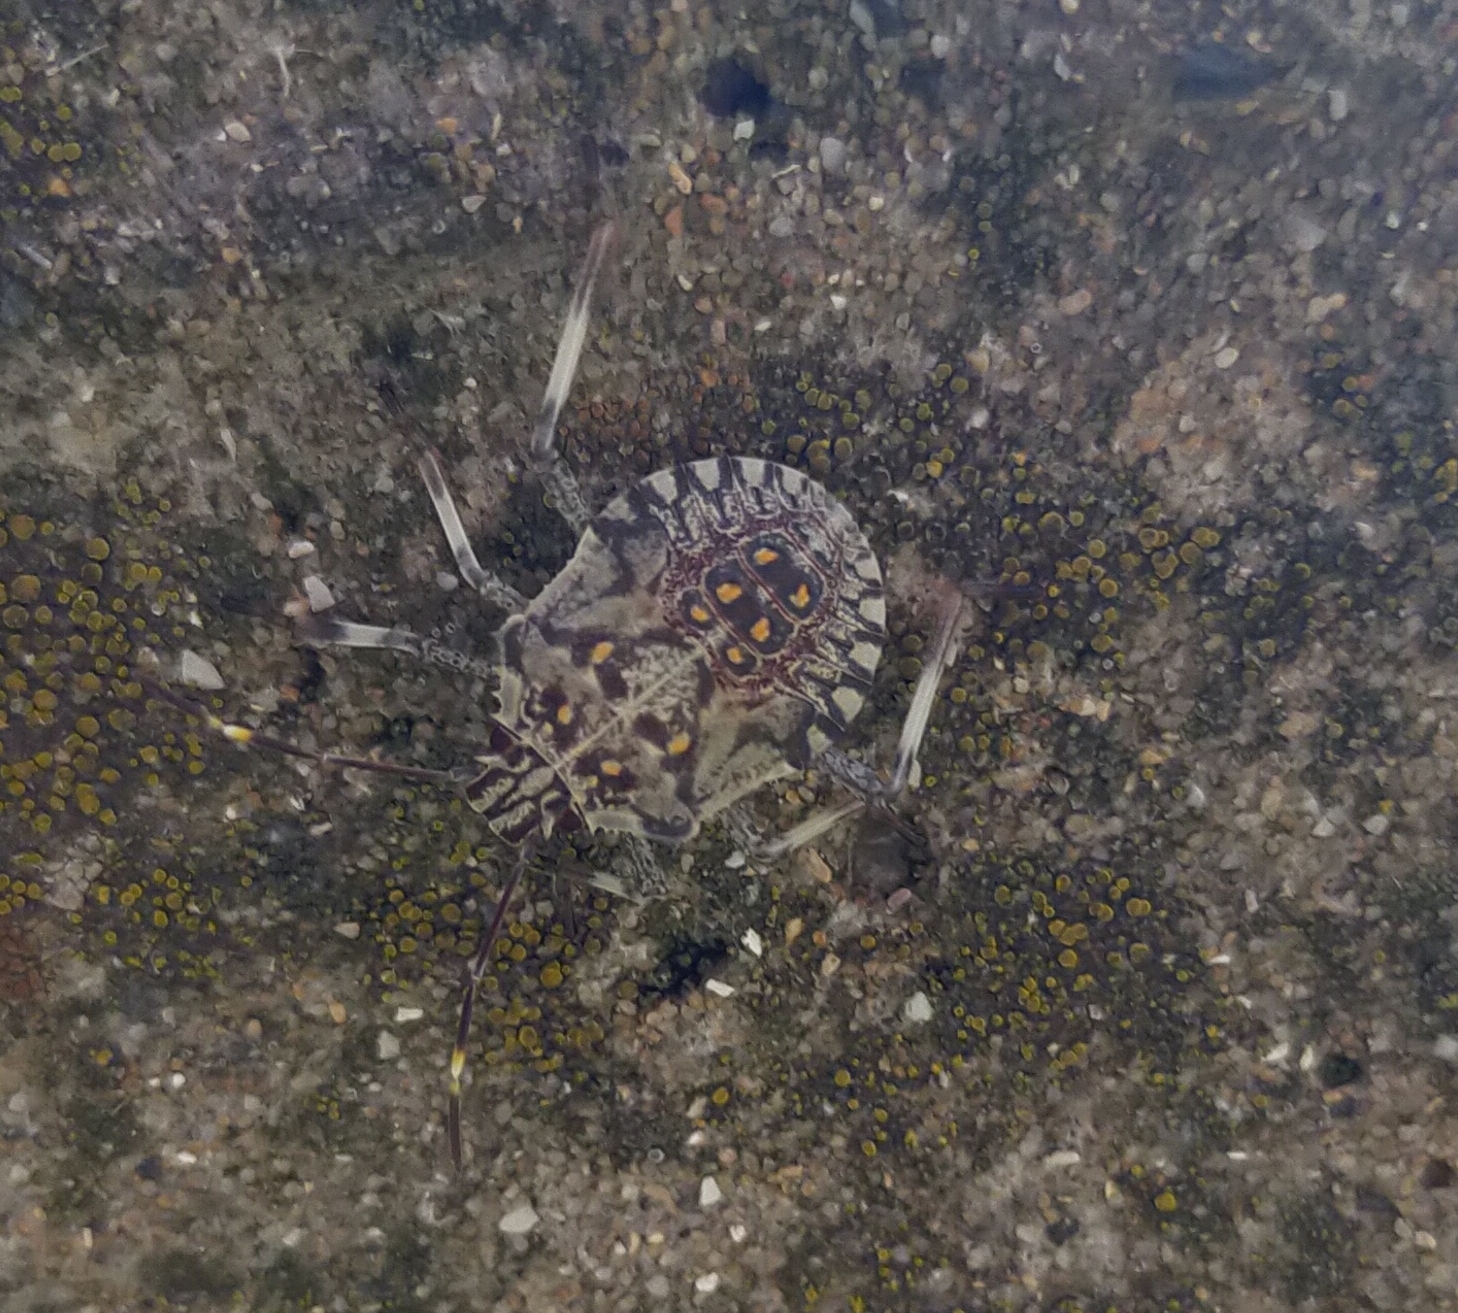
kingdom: Animalia
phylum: Arthropoda
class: Insecta
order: Hemiptera
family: Pentatomidae
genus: Halyomorpha
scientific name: Halyomorpha halys
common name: Brown marmorated stink bug
